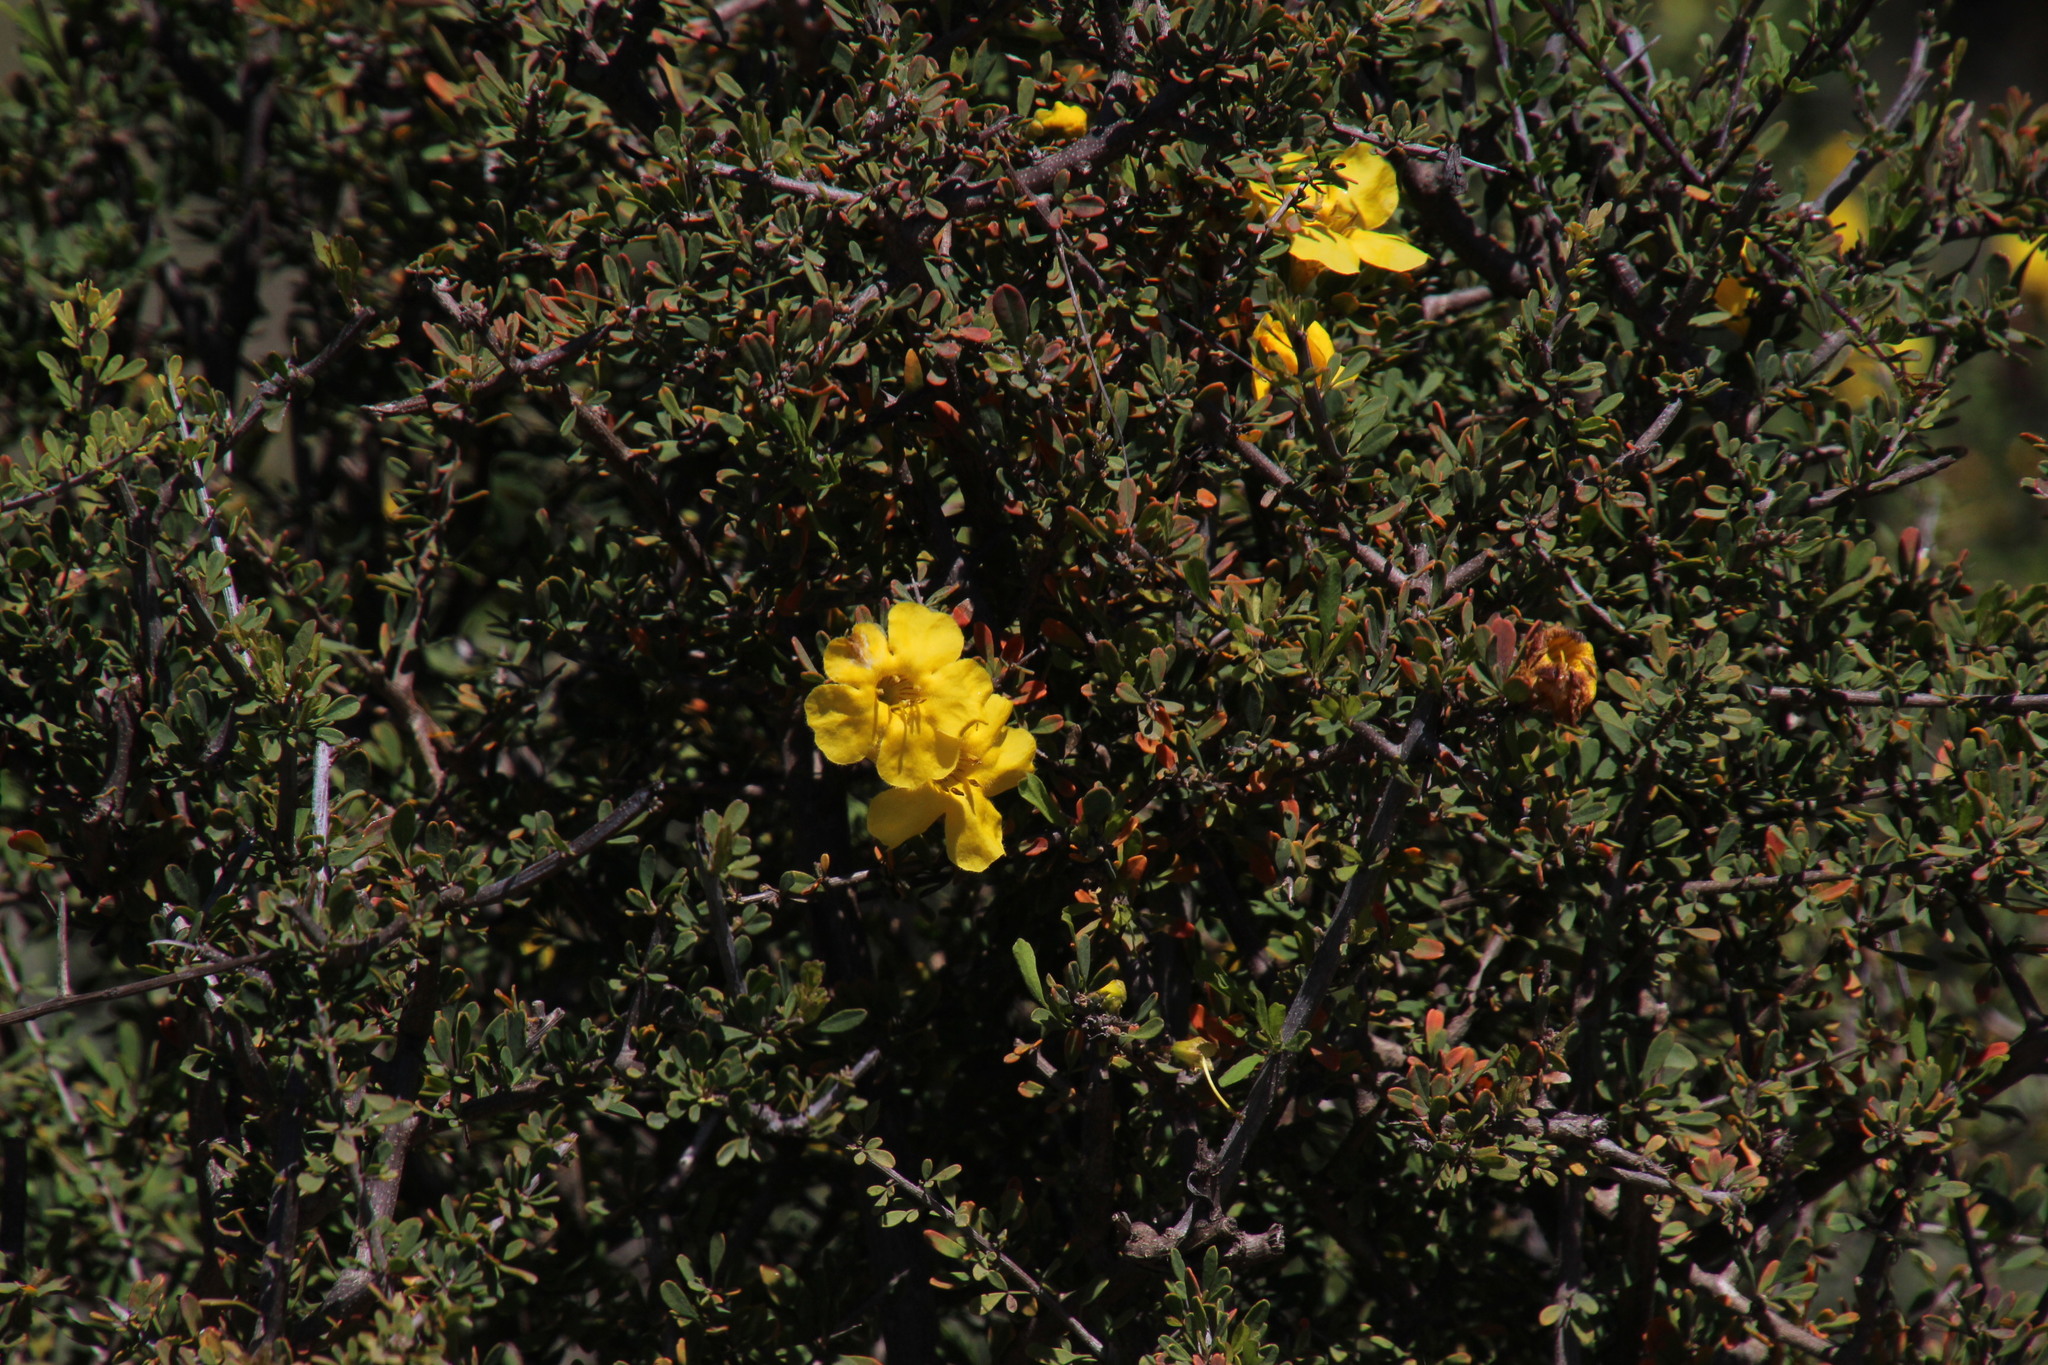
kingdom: Plantae
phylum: Tracheophyta
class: Magnoliopsida
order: Lamiales
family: Bignoniaceae
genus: Rhigozum
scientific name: Rhigozum obovatum
